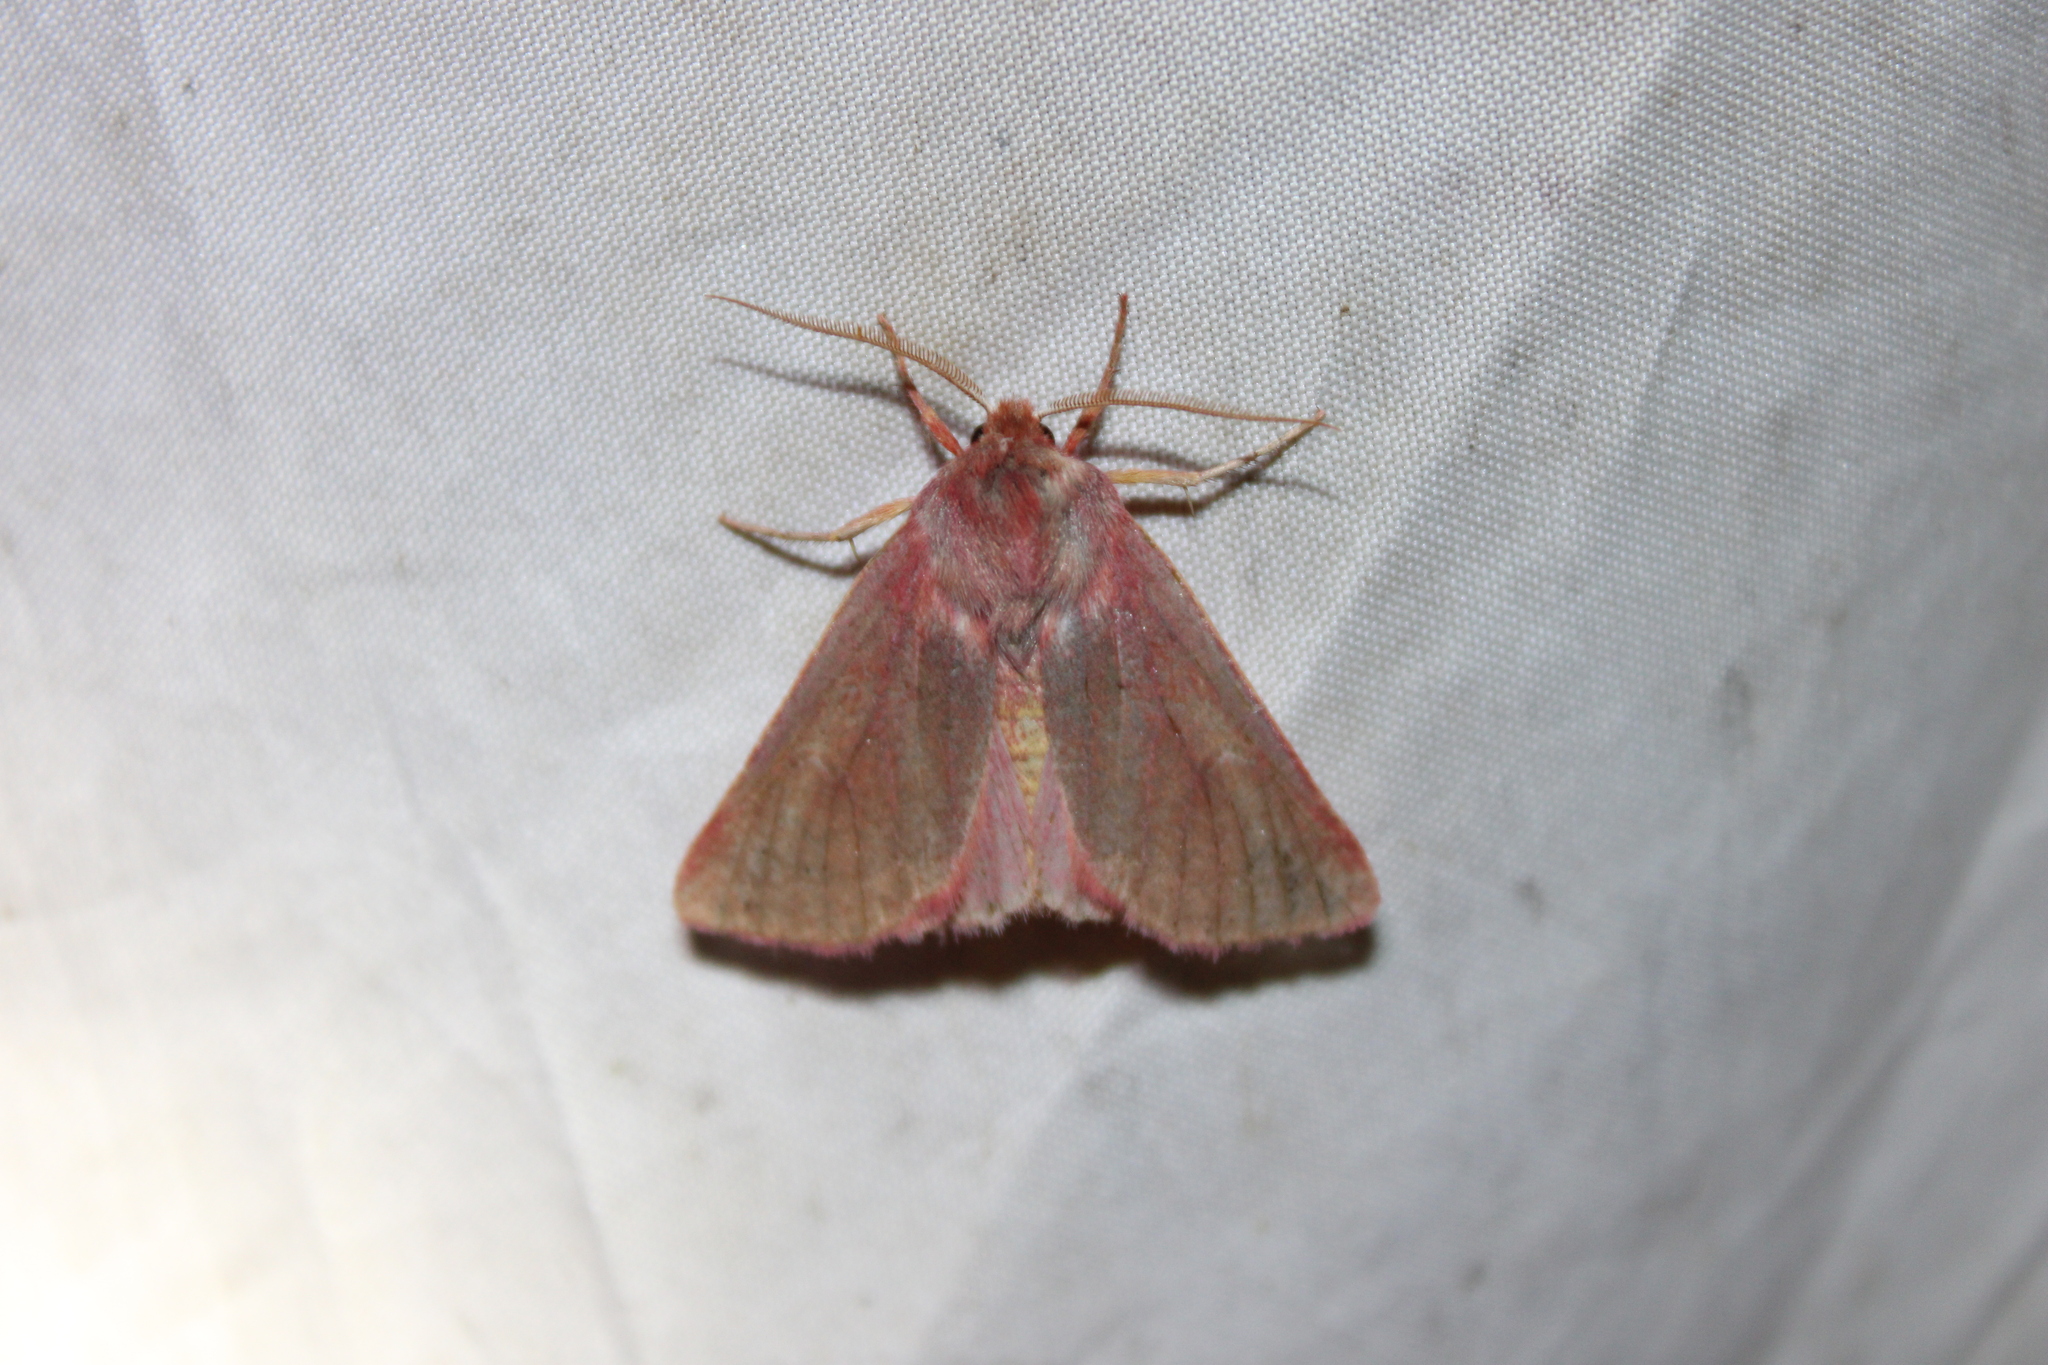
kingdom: Animalia
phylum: Arthropoda
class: Insecta
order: Lepidoptera
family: Noctuidae
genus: Psectraglaea
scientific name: Psectraglaea carnosa
